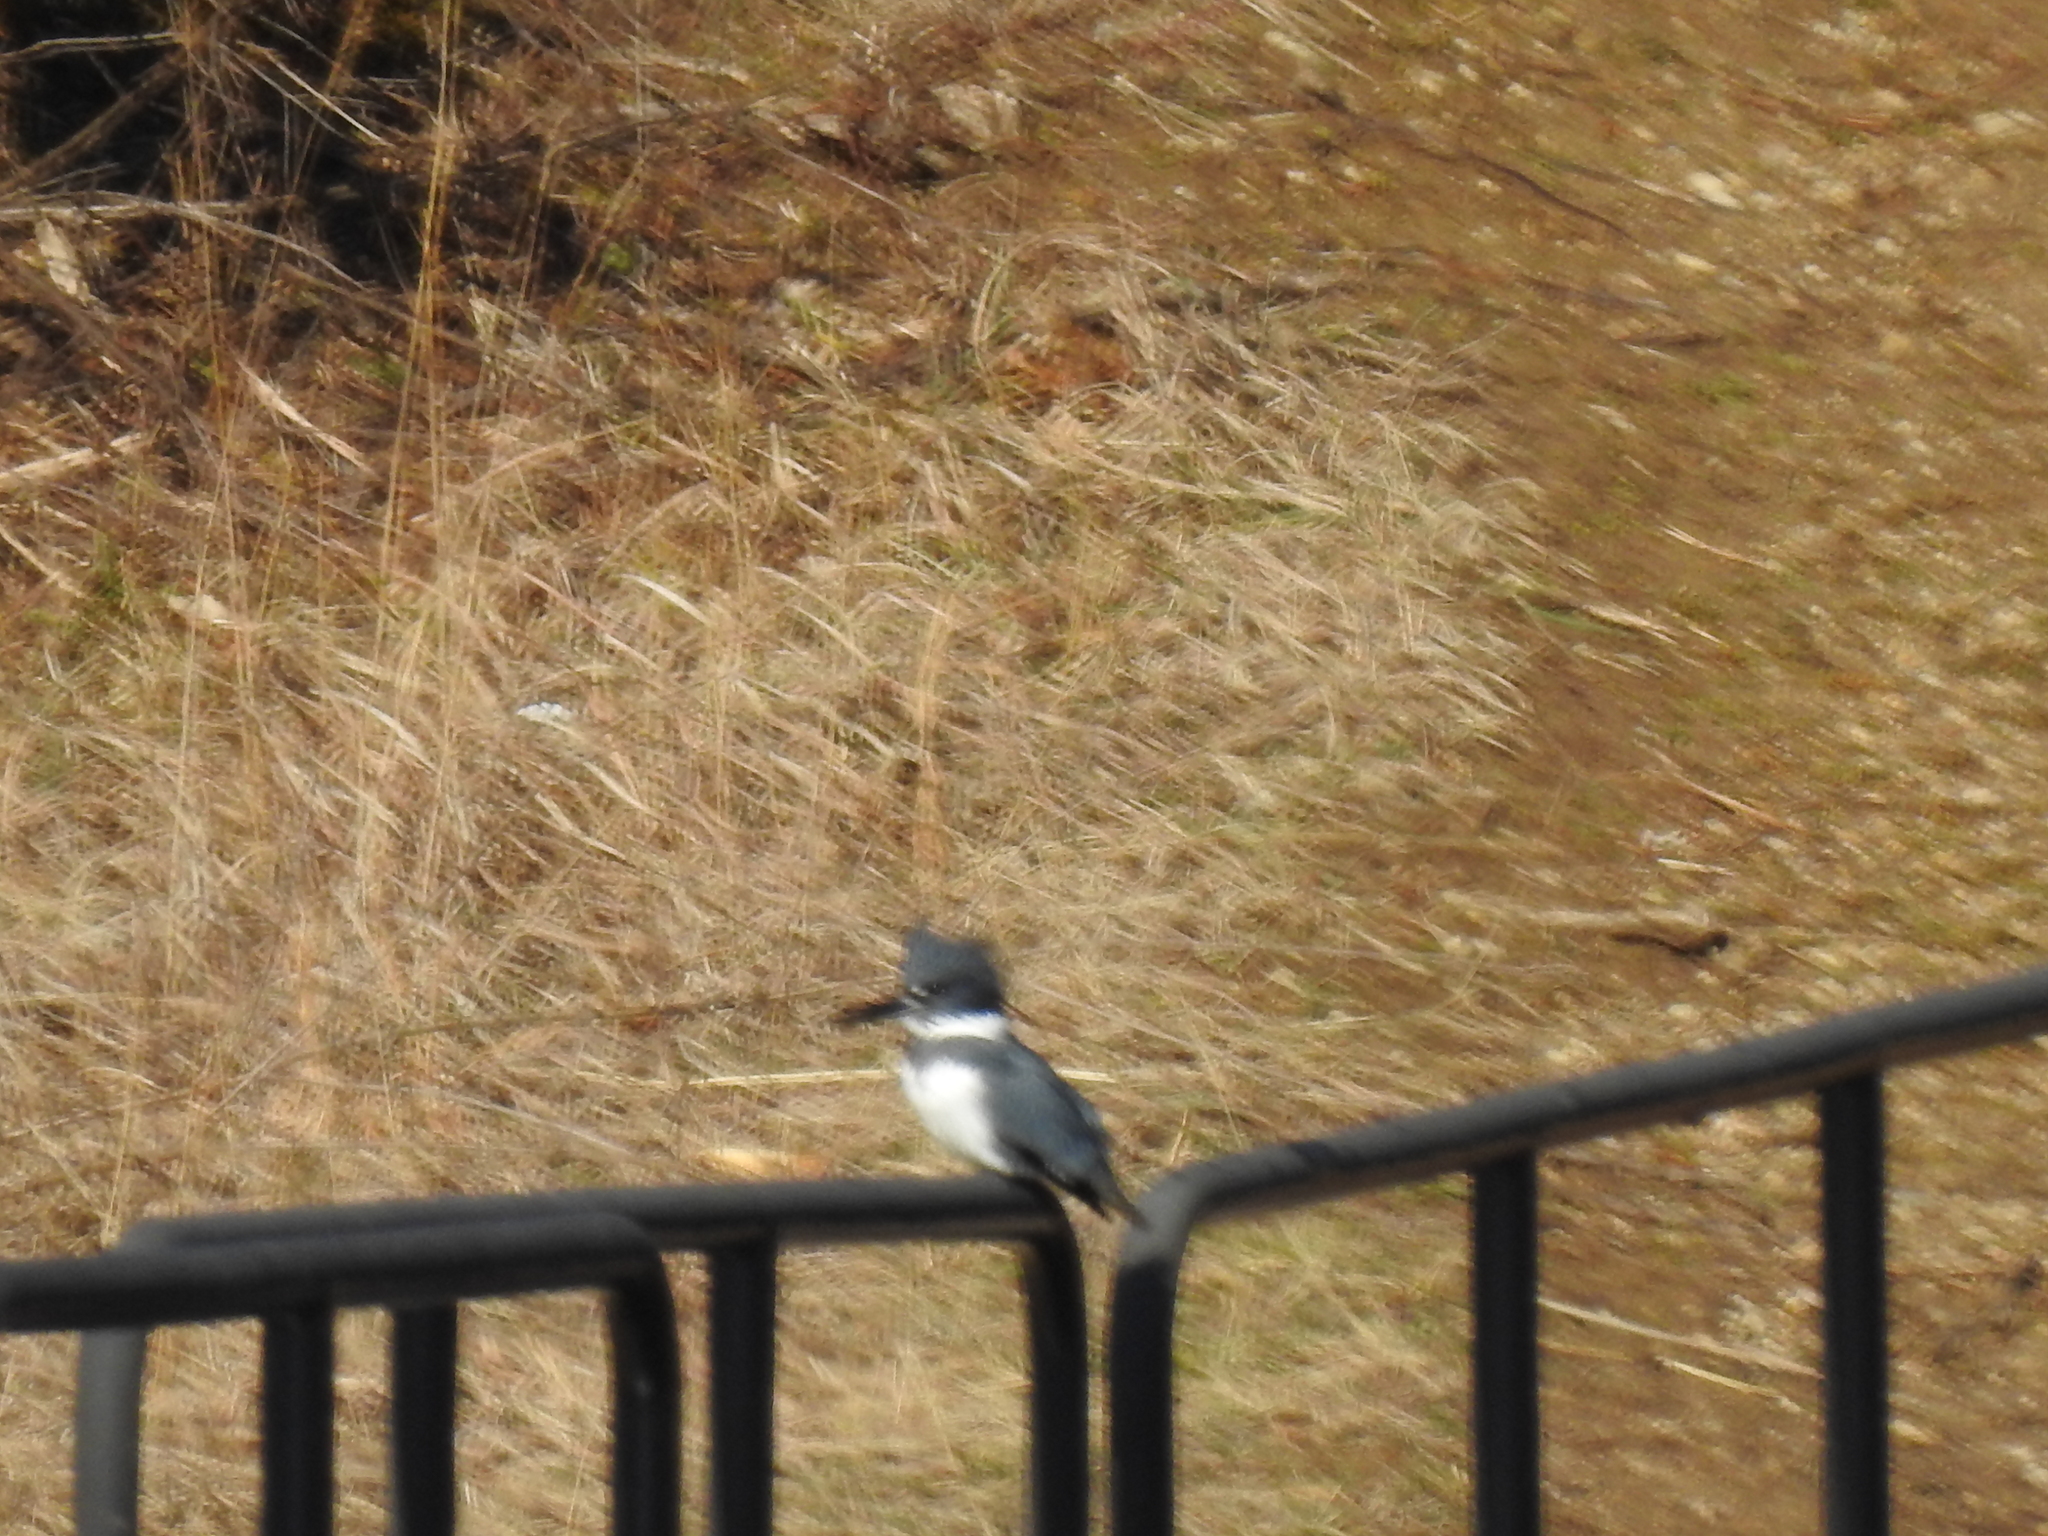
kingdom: Animalia
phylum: Chordata
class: Aves
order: Coraciiformes
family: Alcedinidae
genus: Megaceryle
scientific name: Megaceryle alcyon
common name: Belted kingfisher
